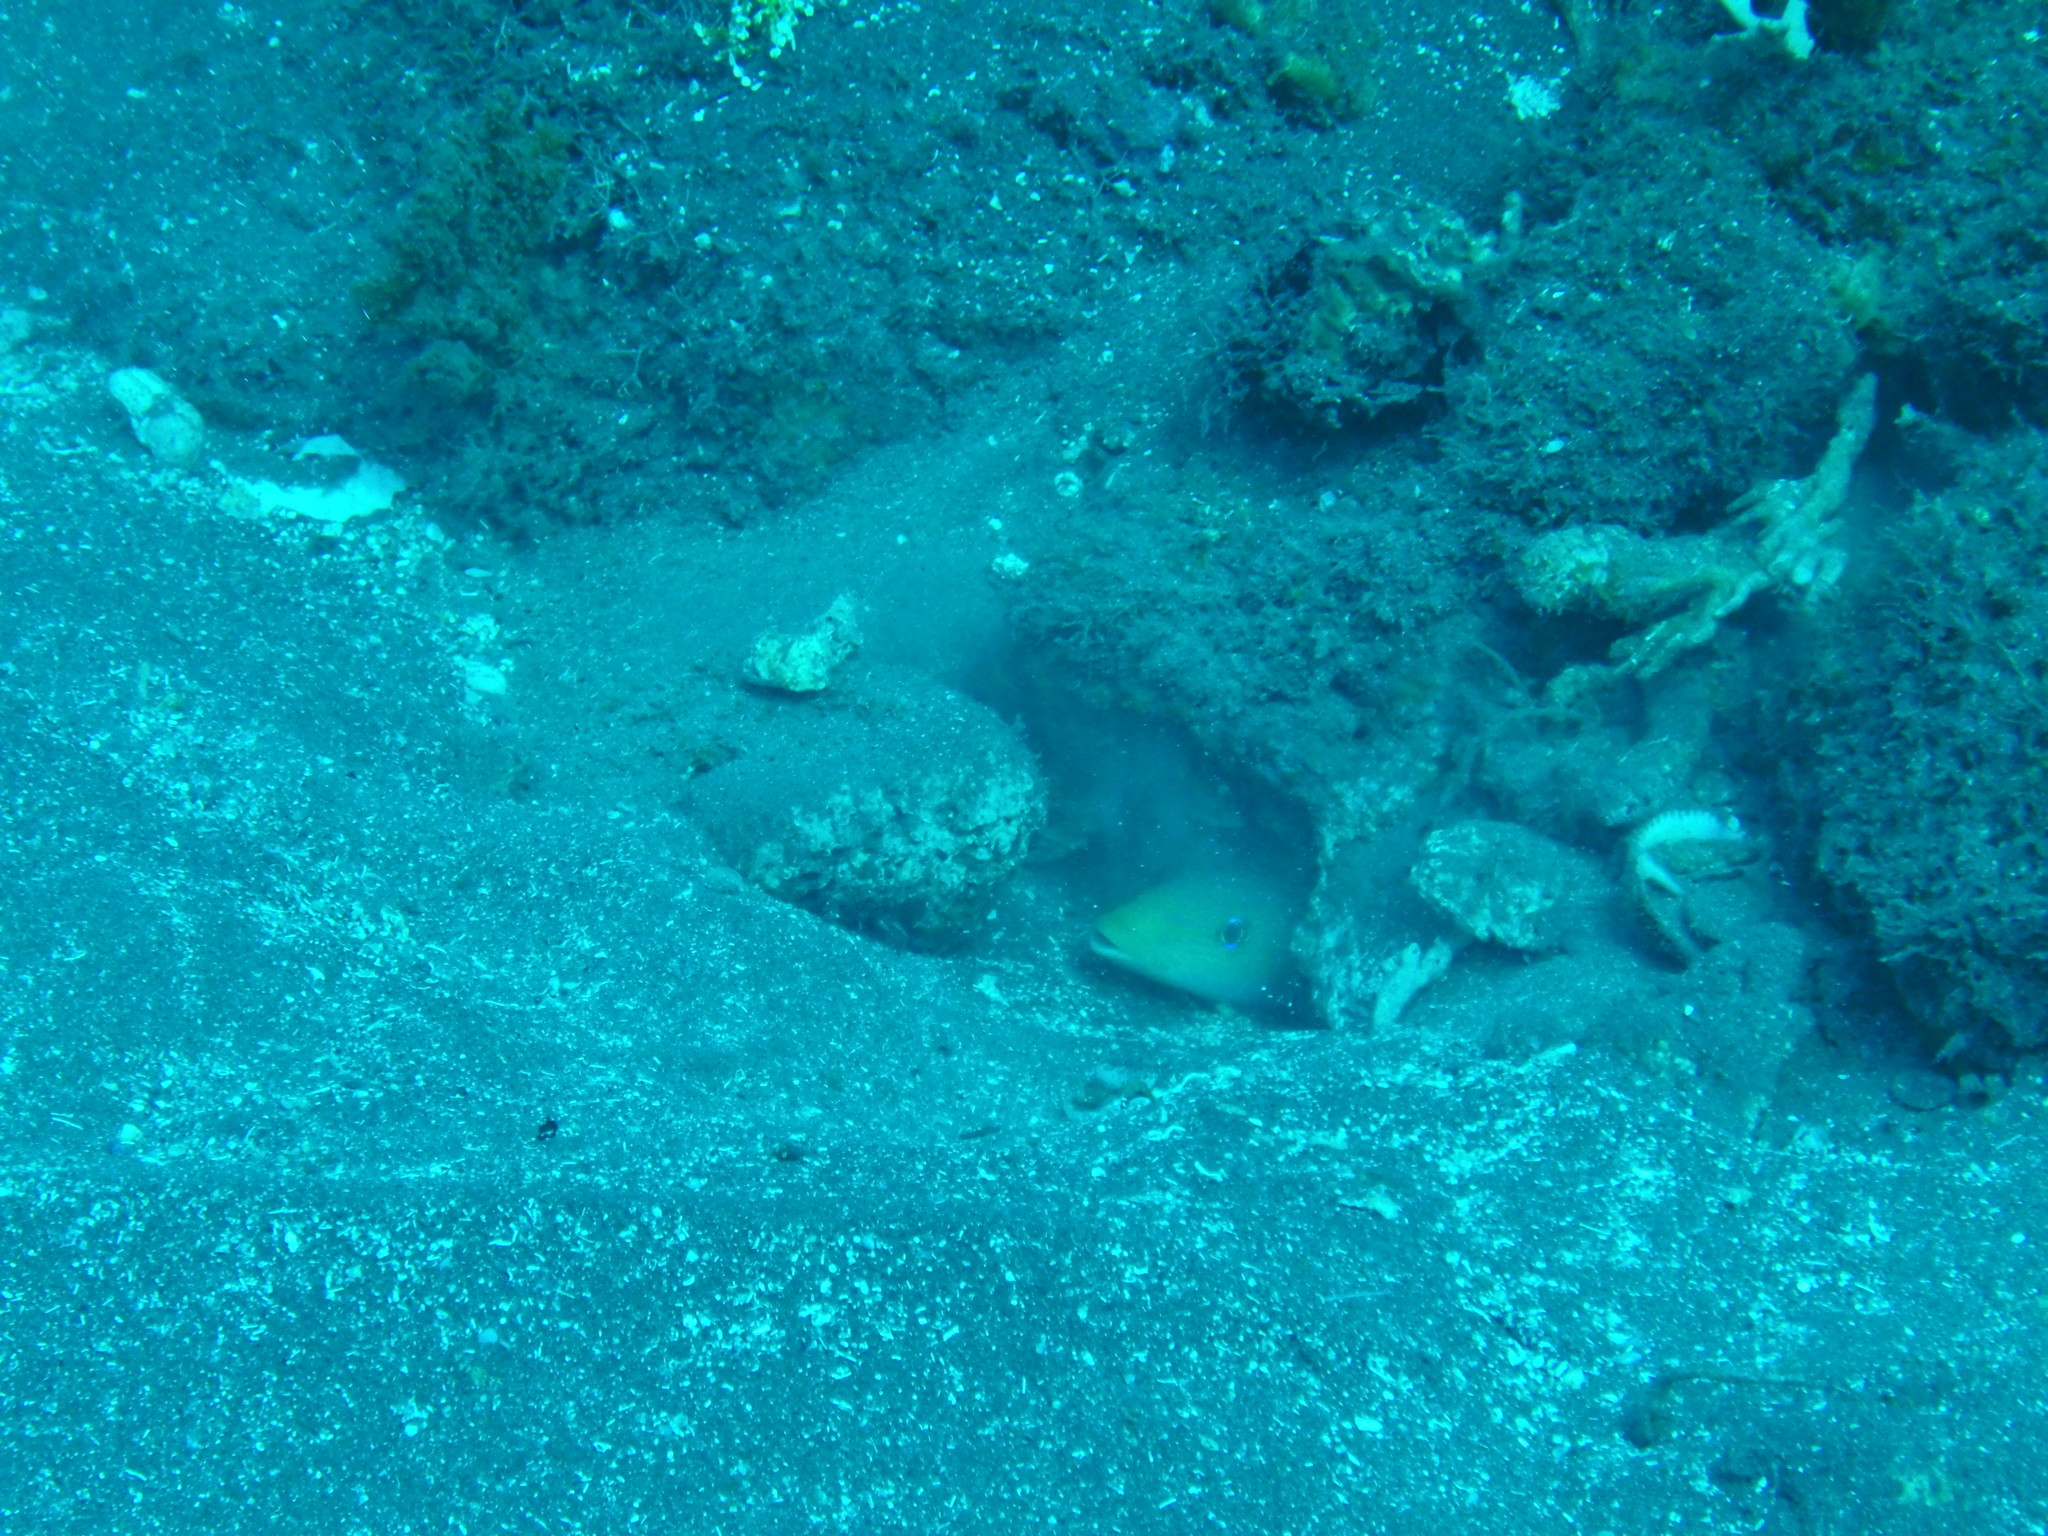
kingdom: Animalia
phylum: Chordata
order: Perciformes
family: Malacanthidae
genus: Malacanthus
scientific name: Malacanthus plumieri
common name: Sand tilefish
